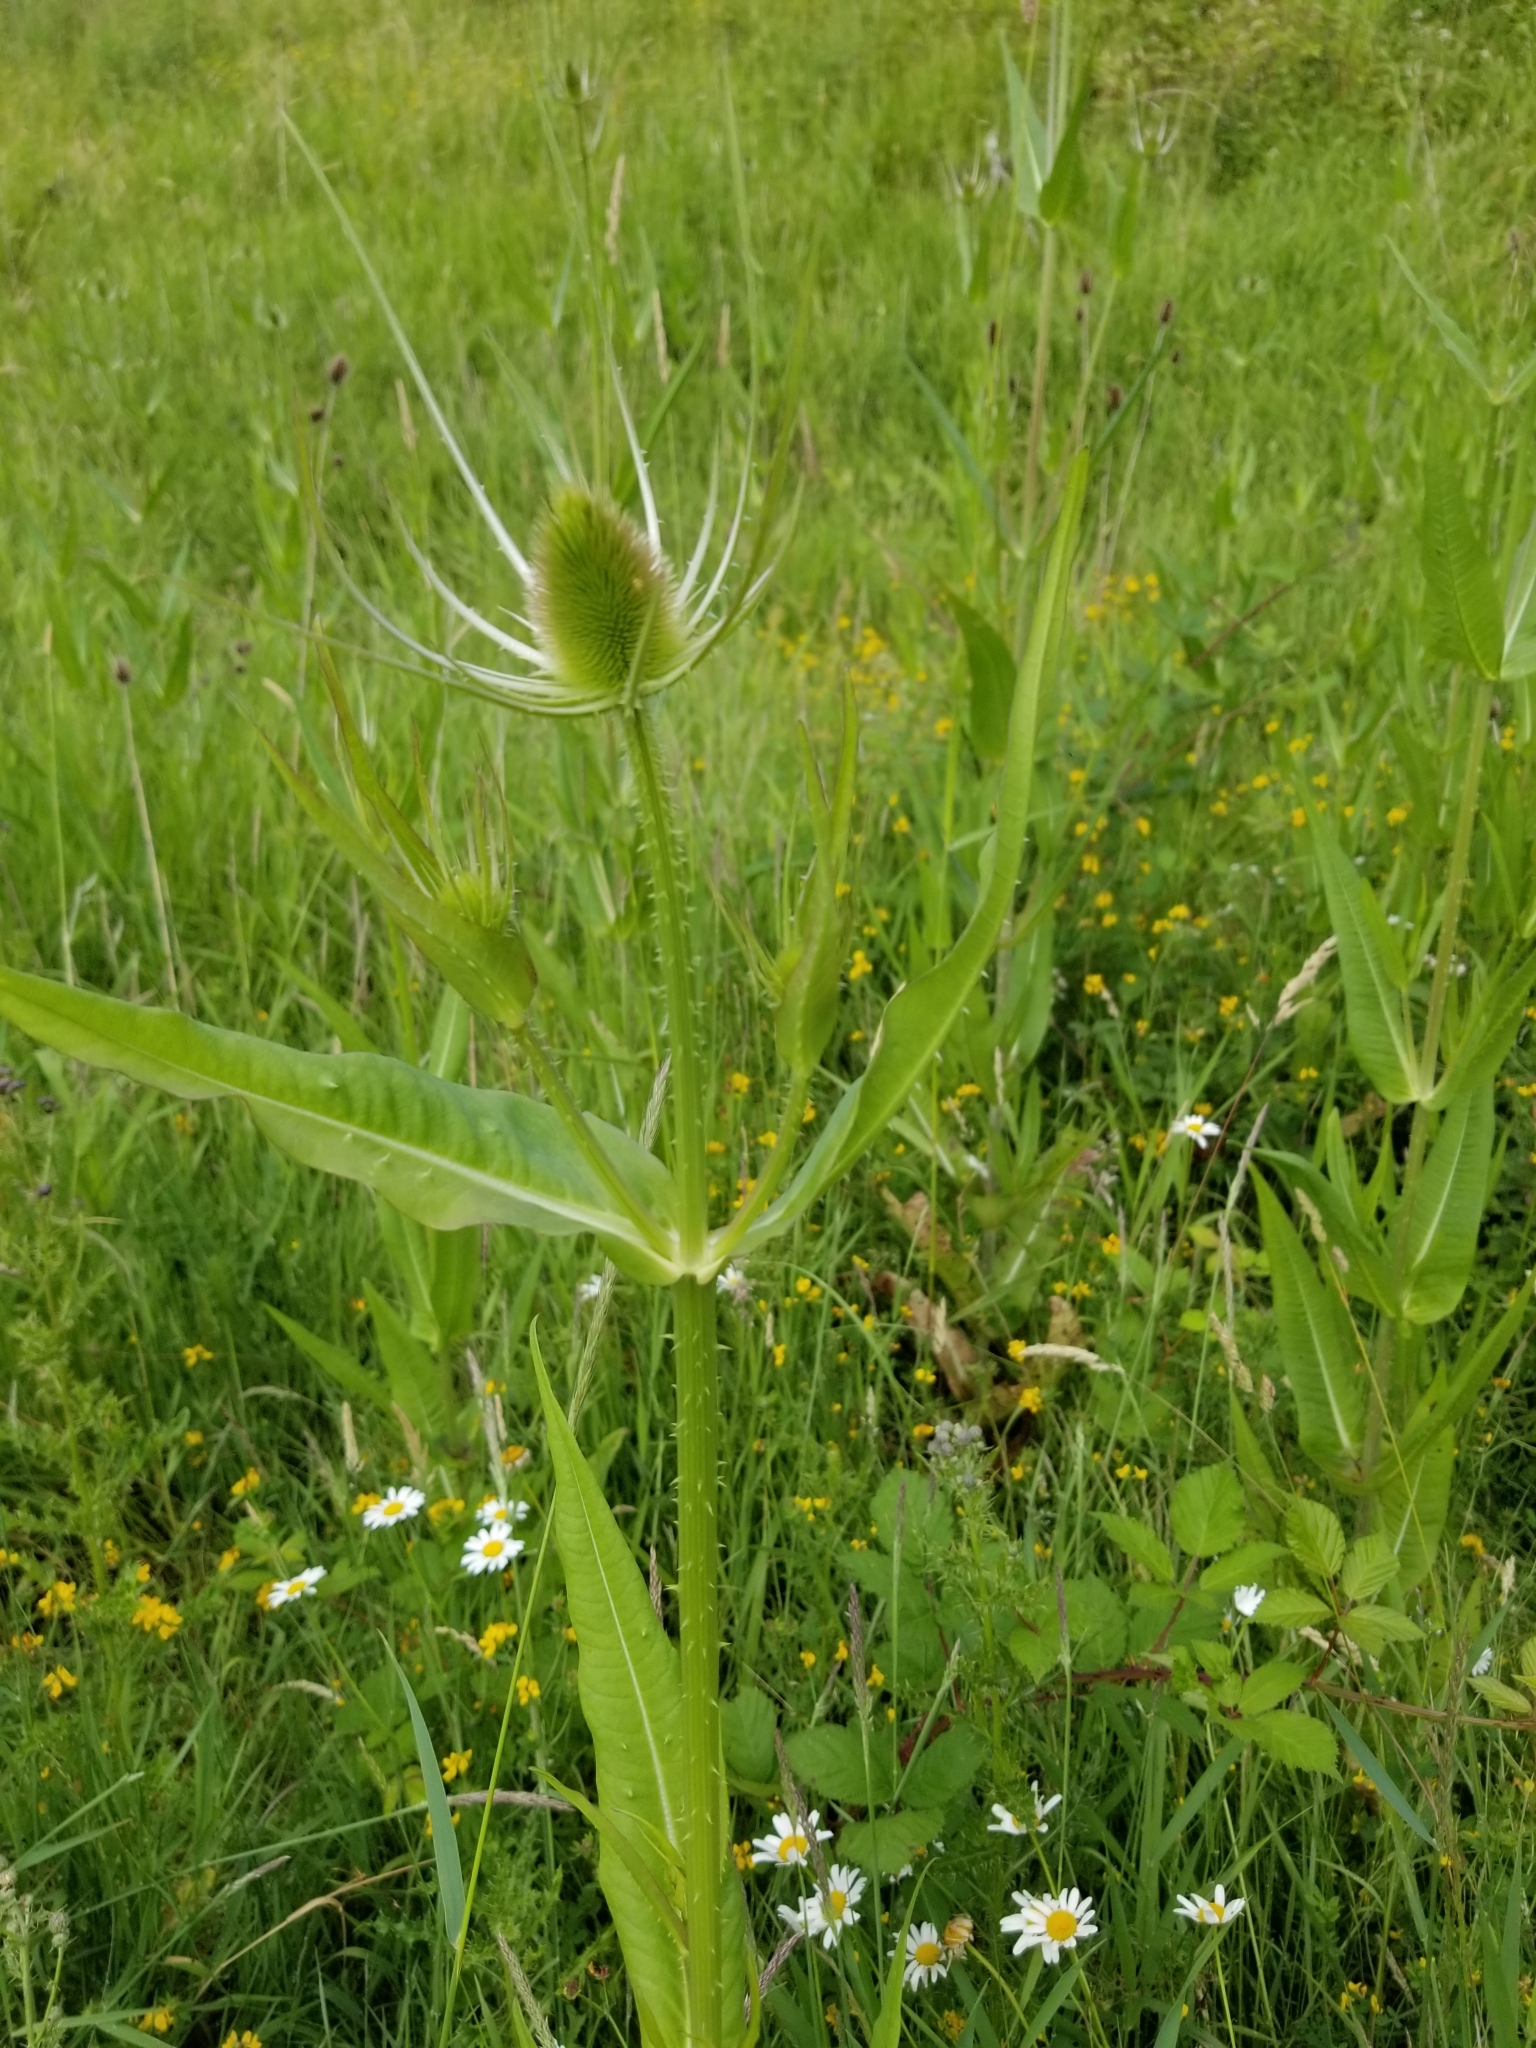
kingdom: Plantae
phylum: Tracheophyta
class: Magnoliopsida
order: Dipsacales
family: Caprifoliaceae
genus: Dipsacus
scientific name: Dipsacus fullonum
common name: Teasel
